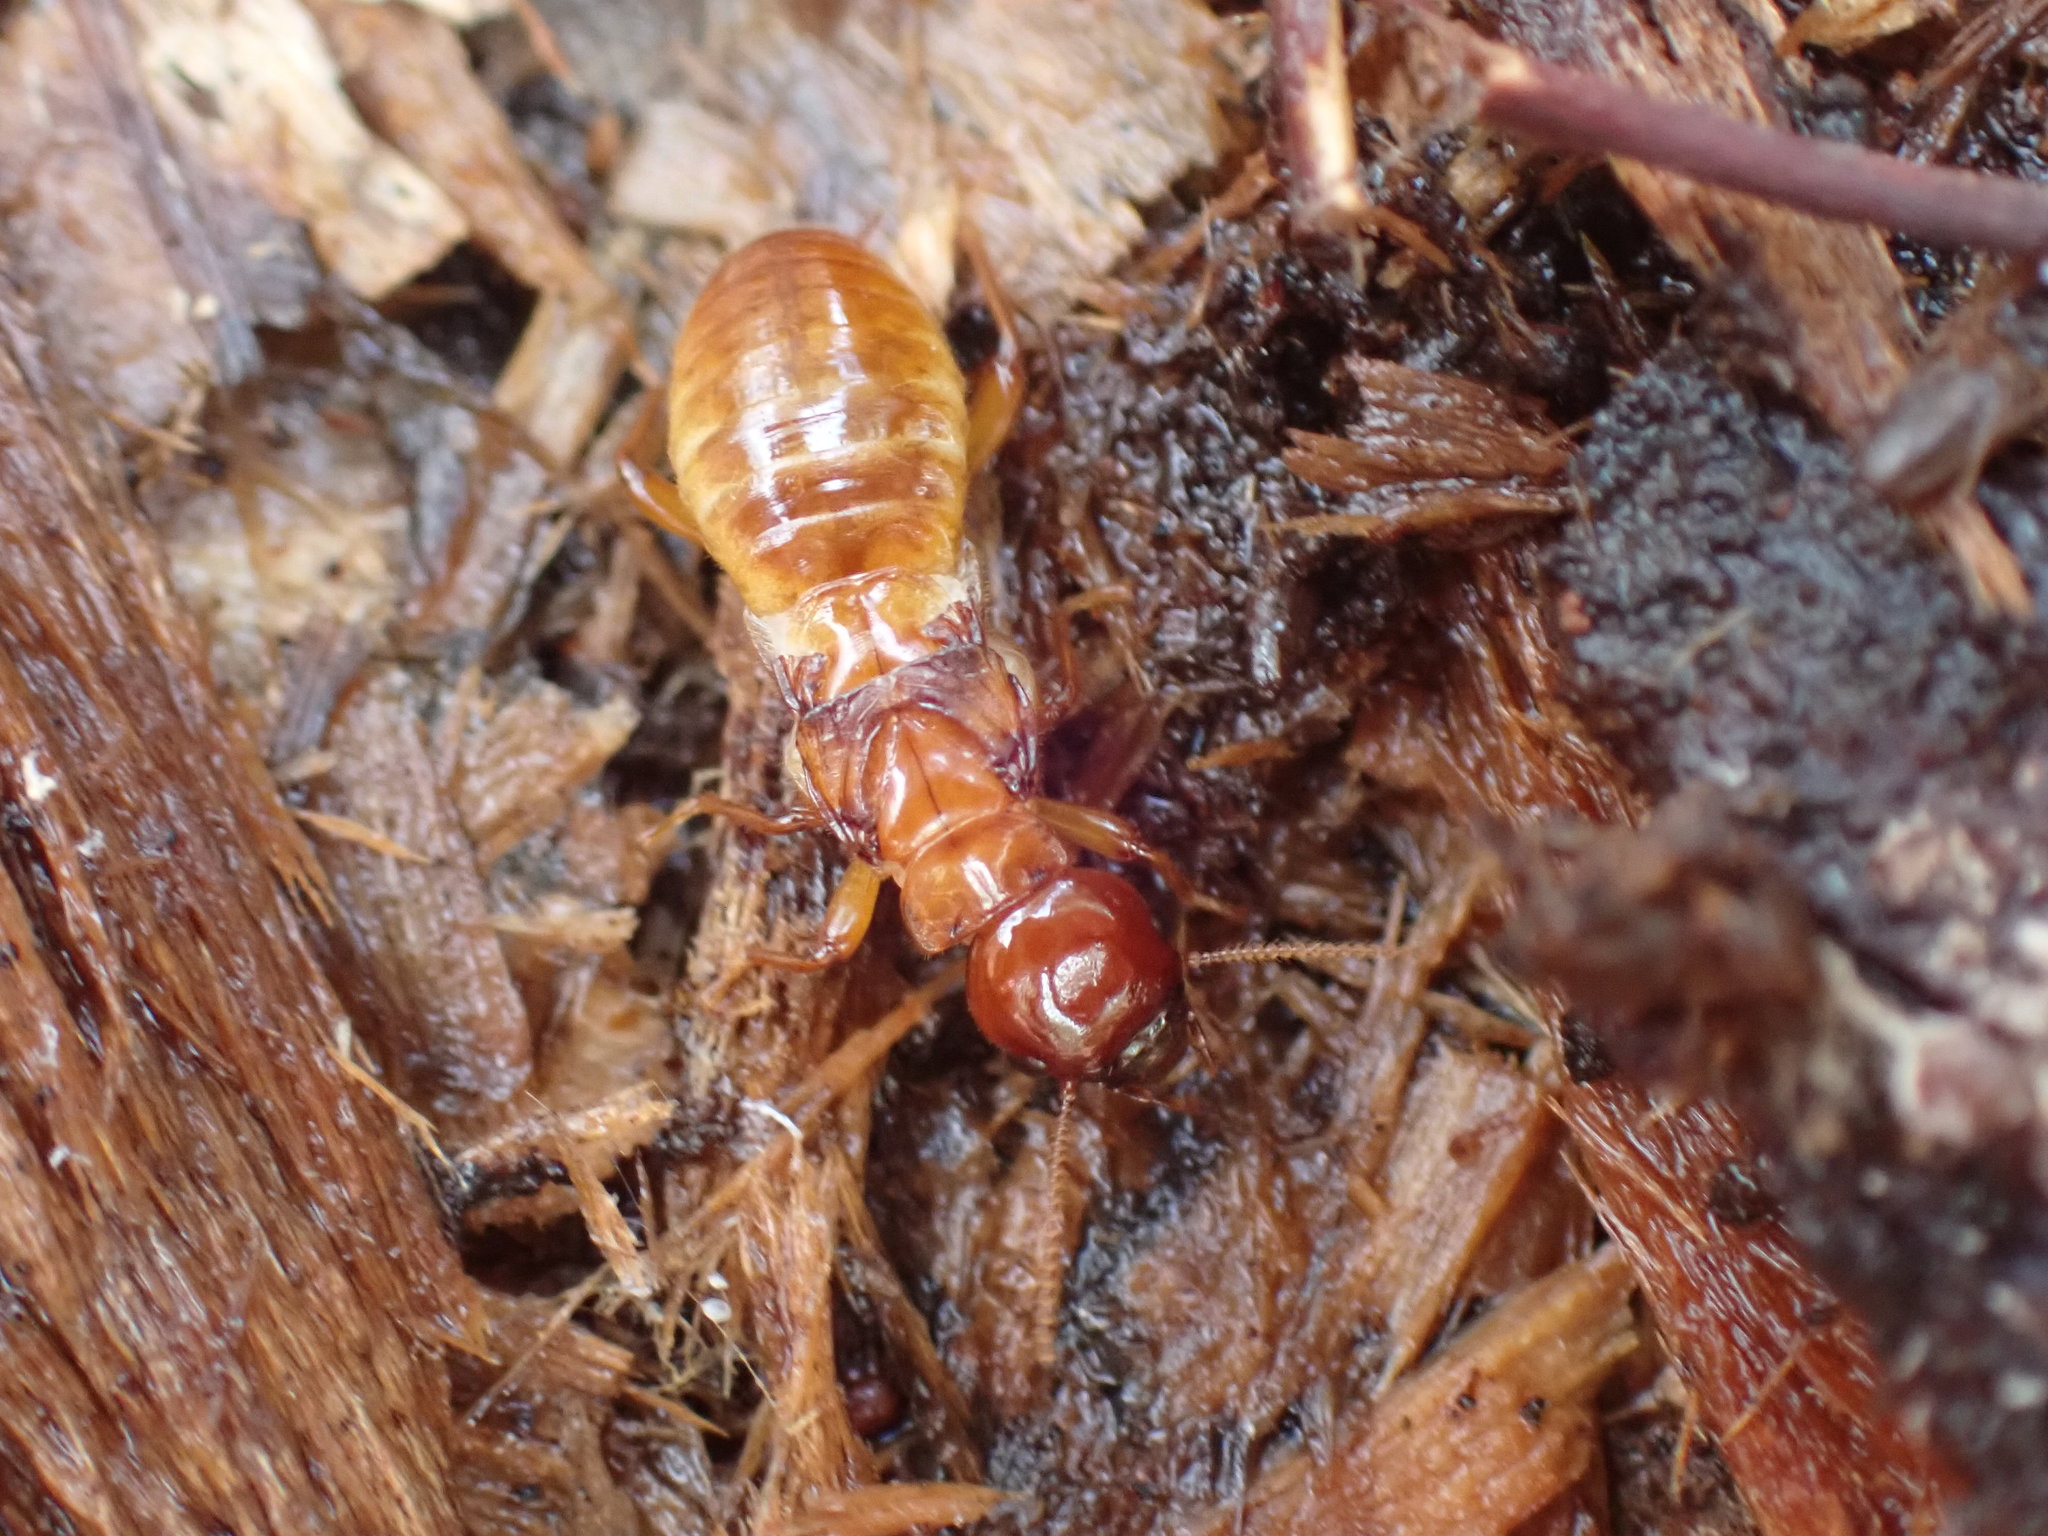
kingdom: Animalia
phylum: Arthropoda
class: Insecta
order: Blattodea
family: Archotermopsidae
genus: Zootermopsis
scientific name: Zootermopsis angusticollis
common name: Rottenwood termite
